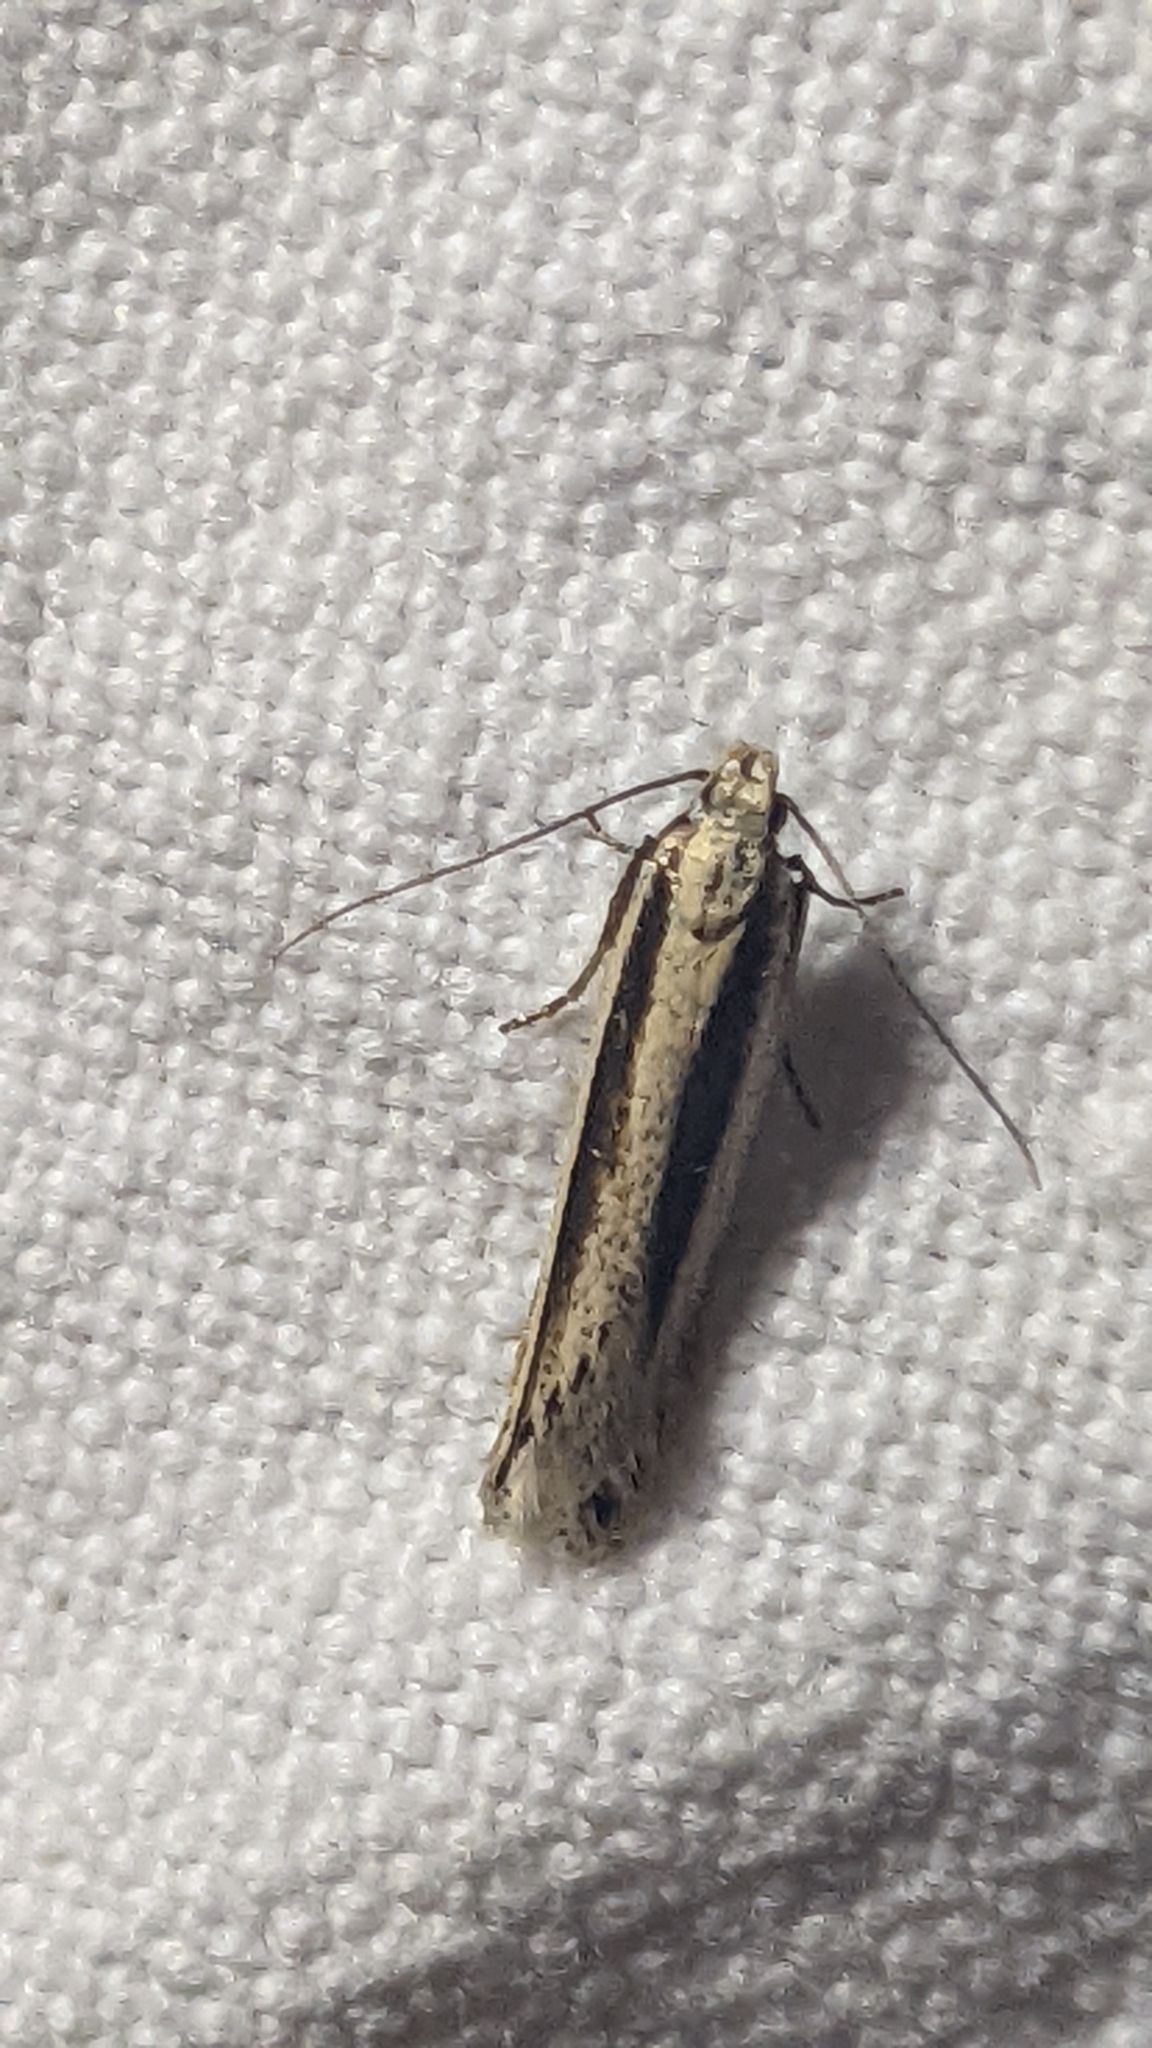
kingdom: Animalia
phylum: Arthropoda
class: Insecta
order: Lepidoptera
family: Gelechiidae
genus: Mirificarma
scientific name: Mirificarma interrupta
